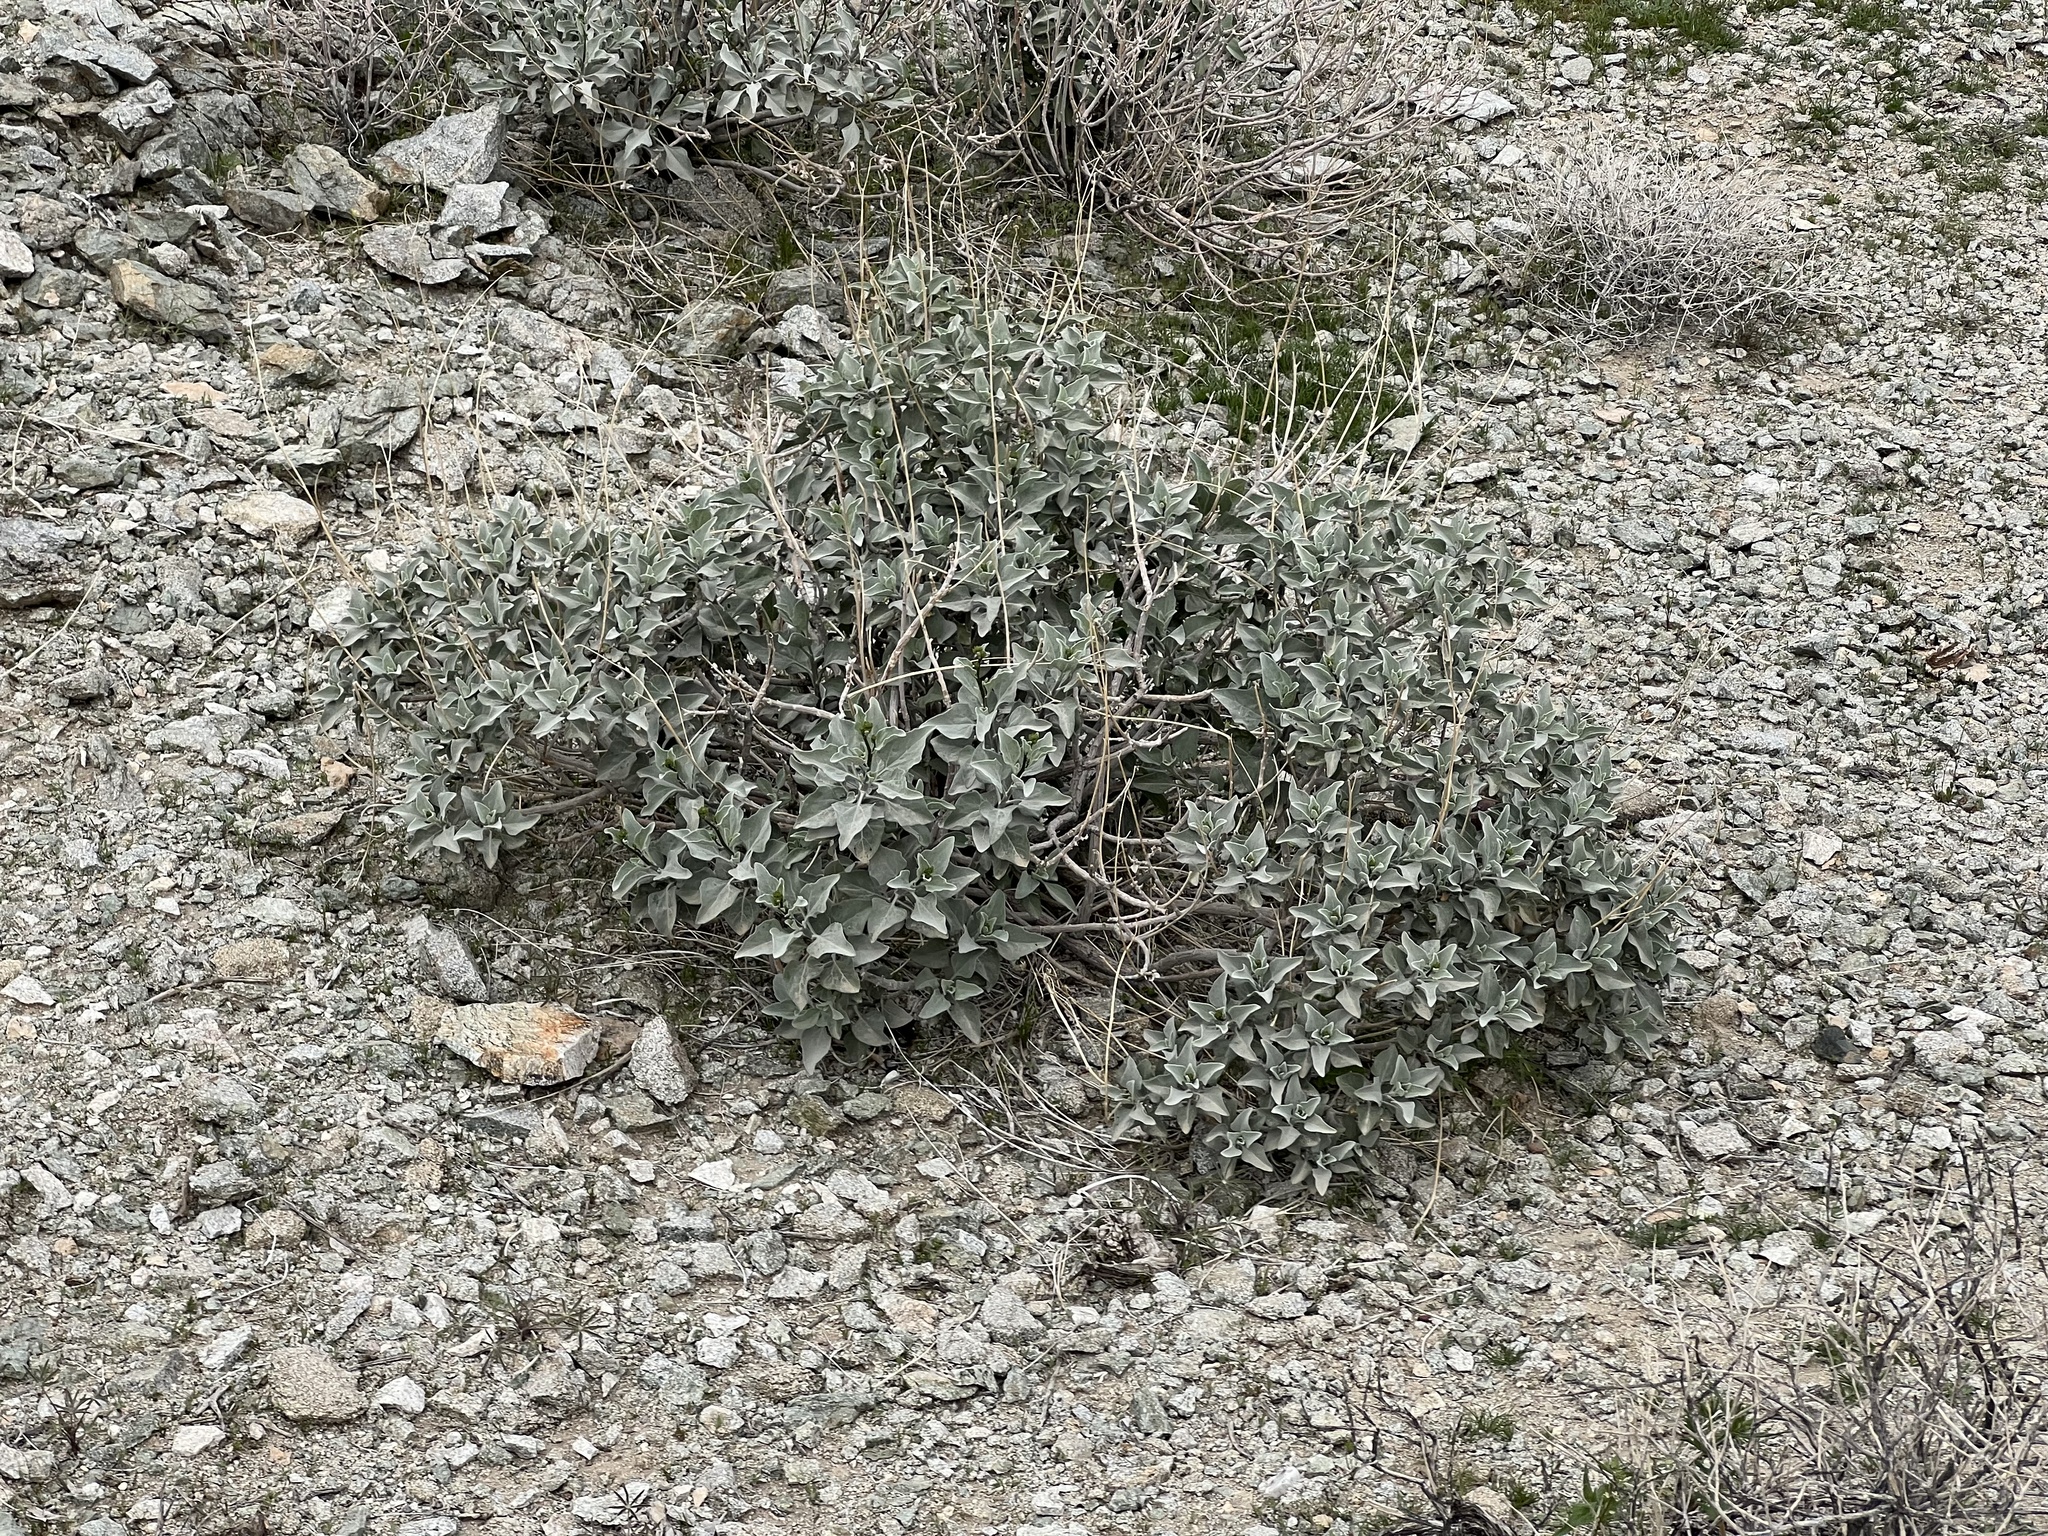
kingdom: Plantae
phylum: Tracheophyta
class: Magnoliopsida
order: Asterales
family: Asteraceae
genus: Encelia
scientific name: Encelia farinosa
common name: Brittlebush
